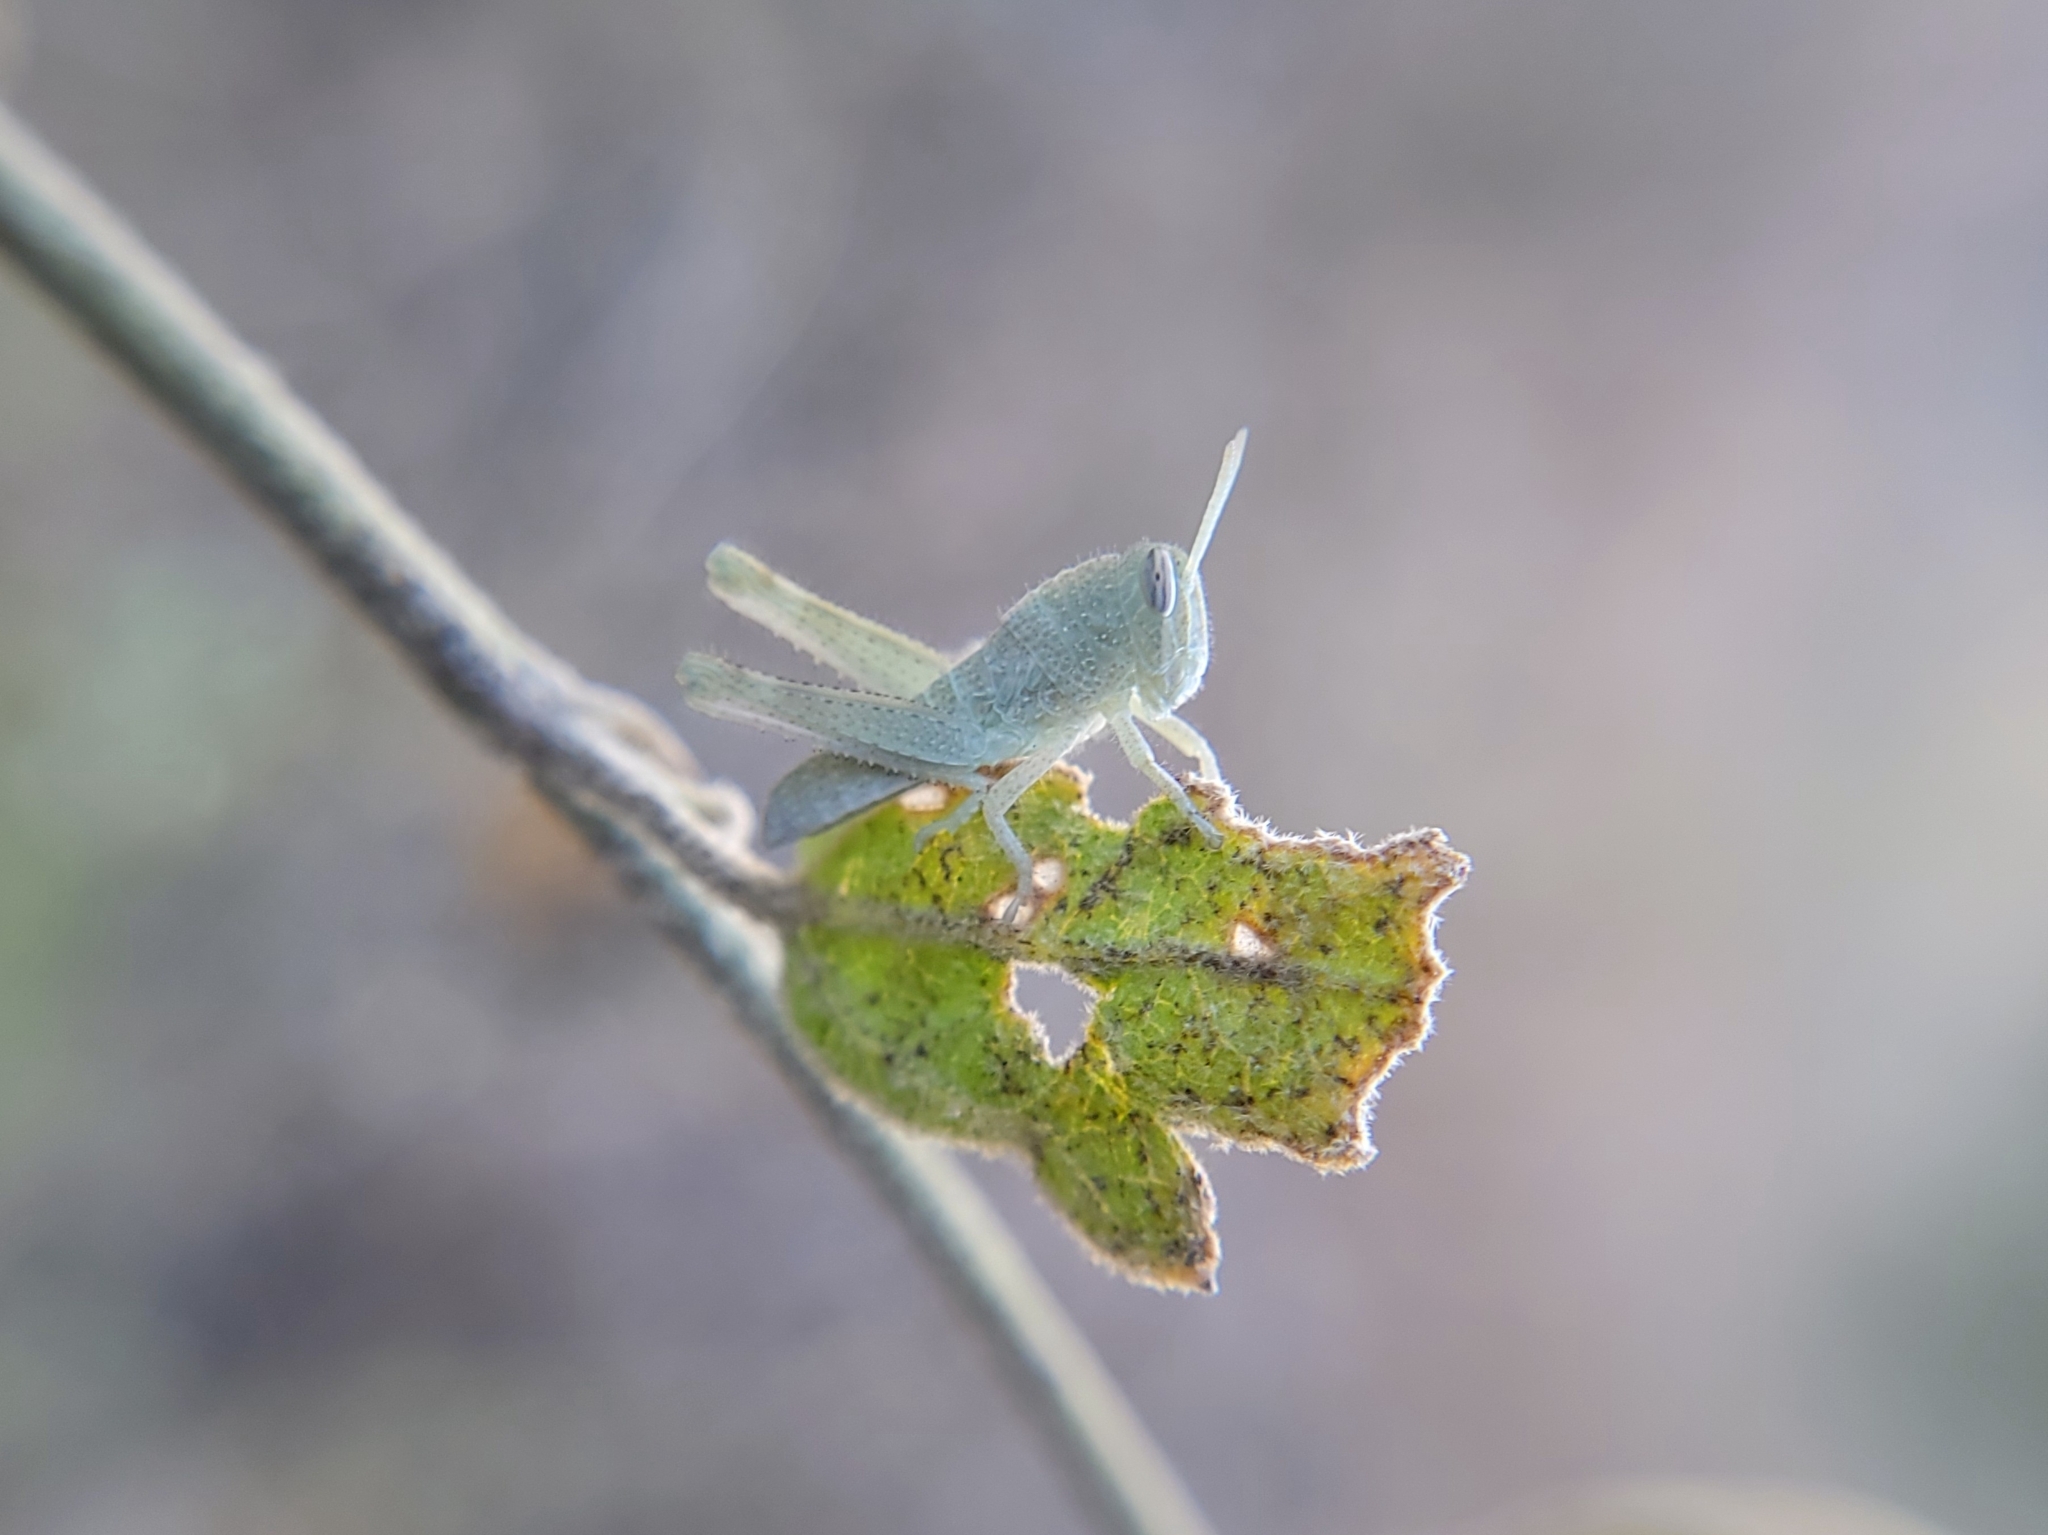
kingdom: Animalia
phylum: Arthropoda
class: Insecta
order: Orthoptera
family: Acrididae
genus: Schistocerca
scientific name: Schistocerca nitens
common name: Vagrant grasshopper
